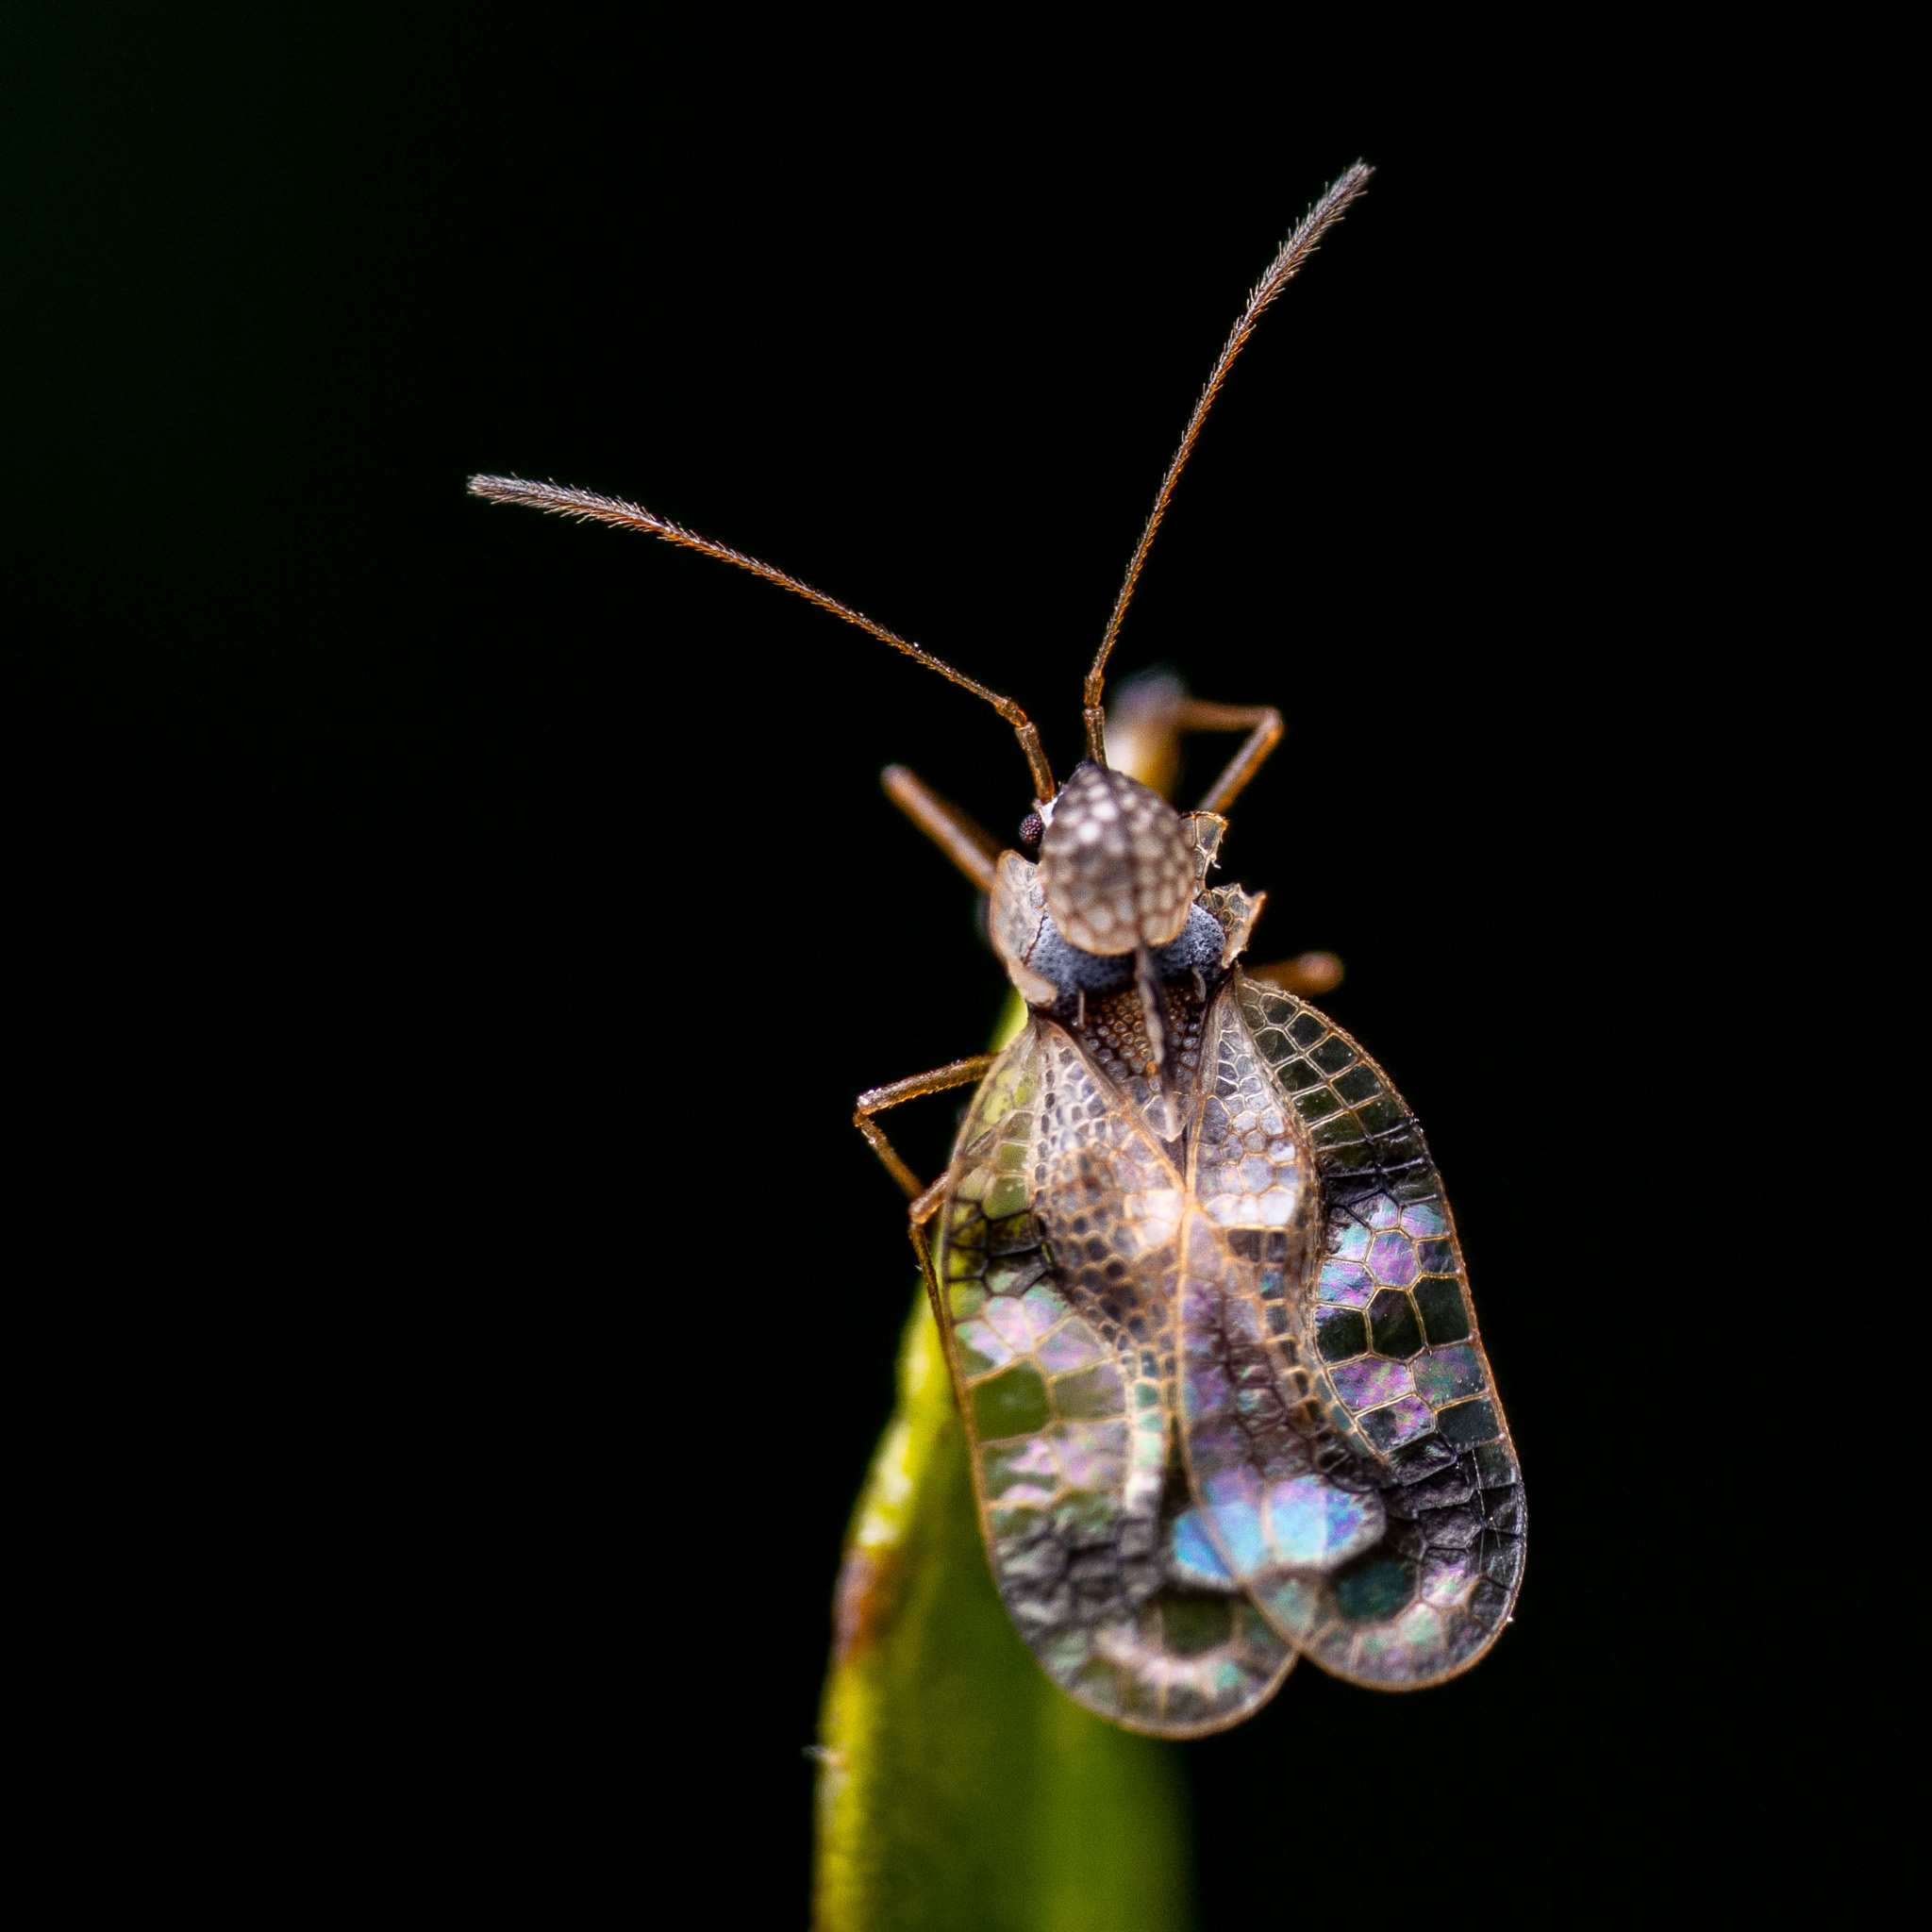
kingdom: Animalia
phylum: Arthropoda
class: Insecta
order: Hemiptera
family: Tingidae
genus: Stephanitis
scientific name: Stephanitis takeyai
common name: Andromeda lacebug
